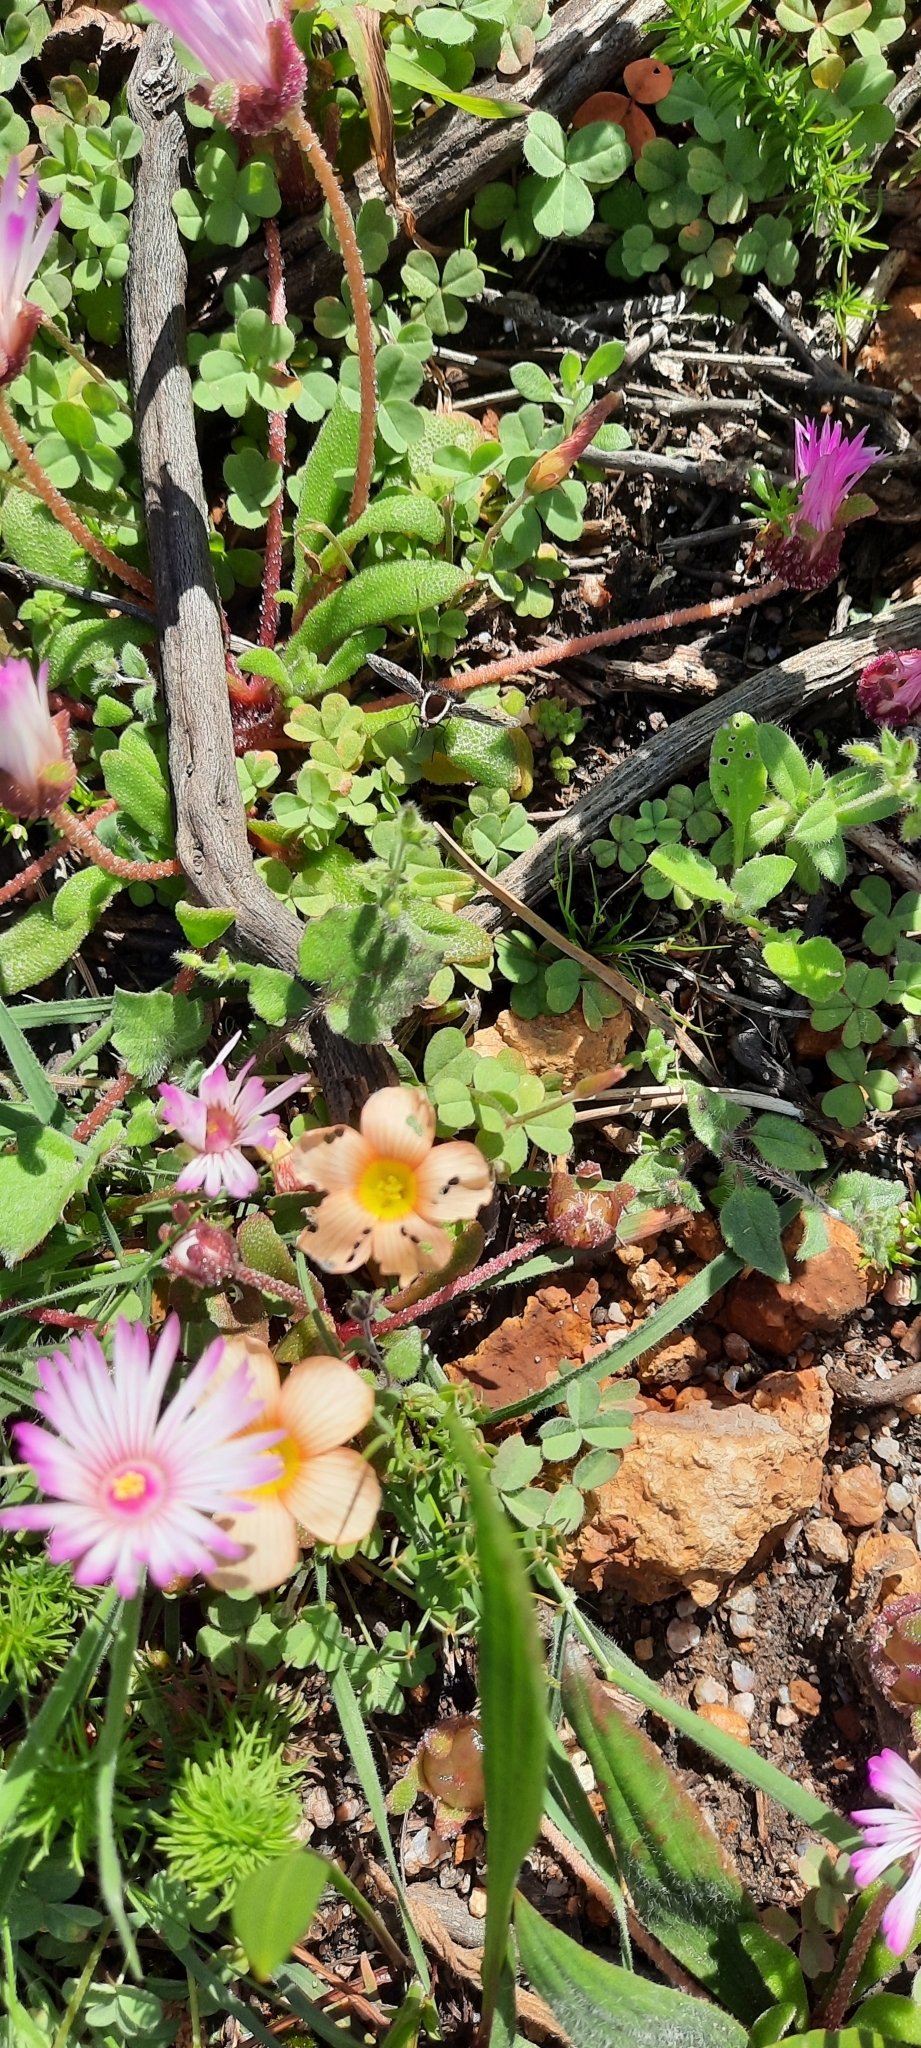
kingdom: Animalia
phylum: Arthropoda
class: Insecta
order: Diptera
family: Bombyliidae
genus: Triplasius
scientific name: Triplasius lateralis
